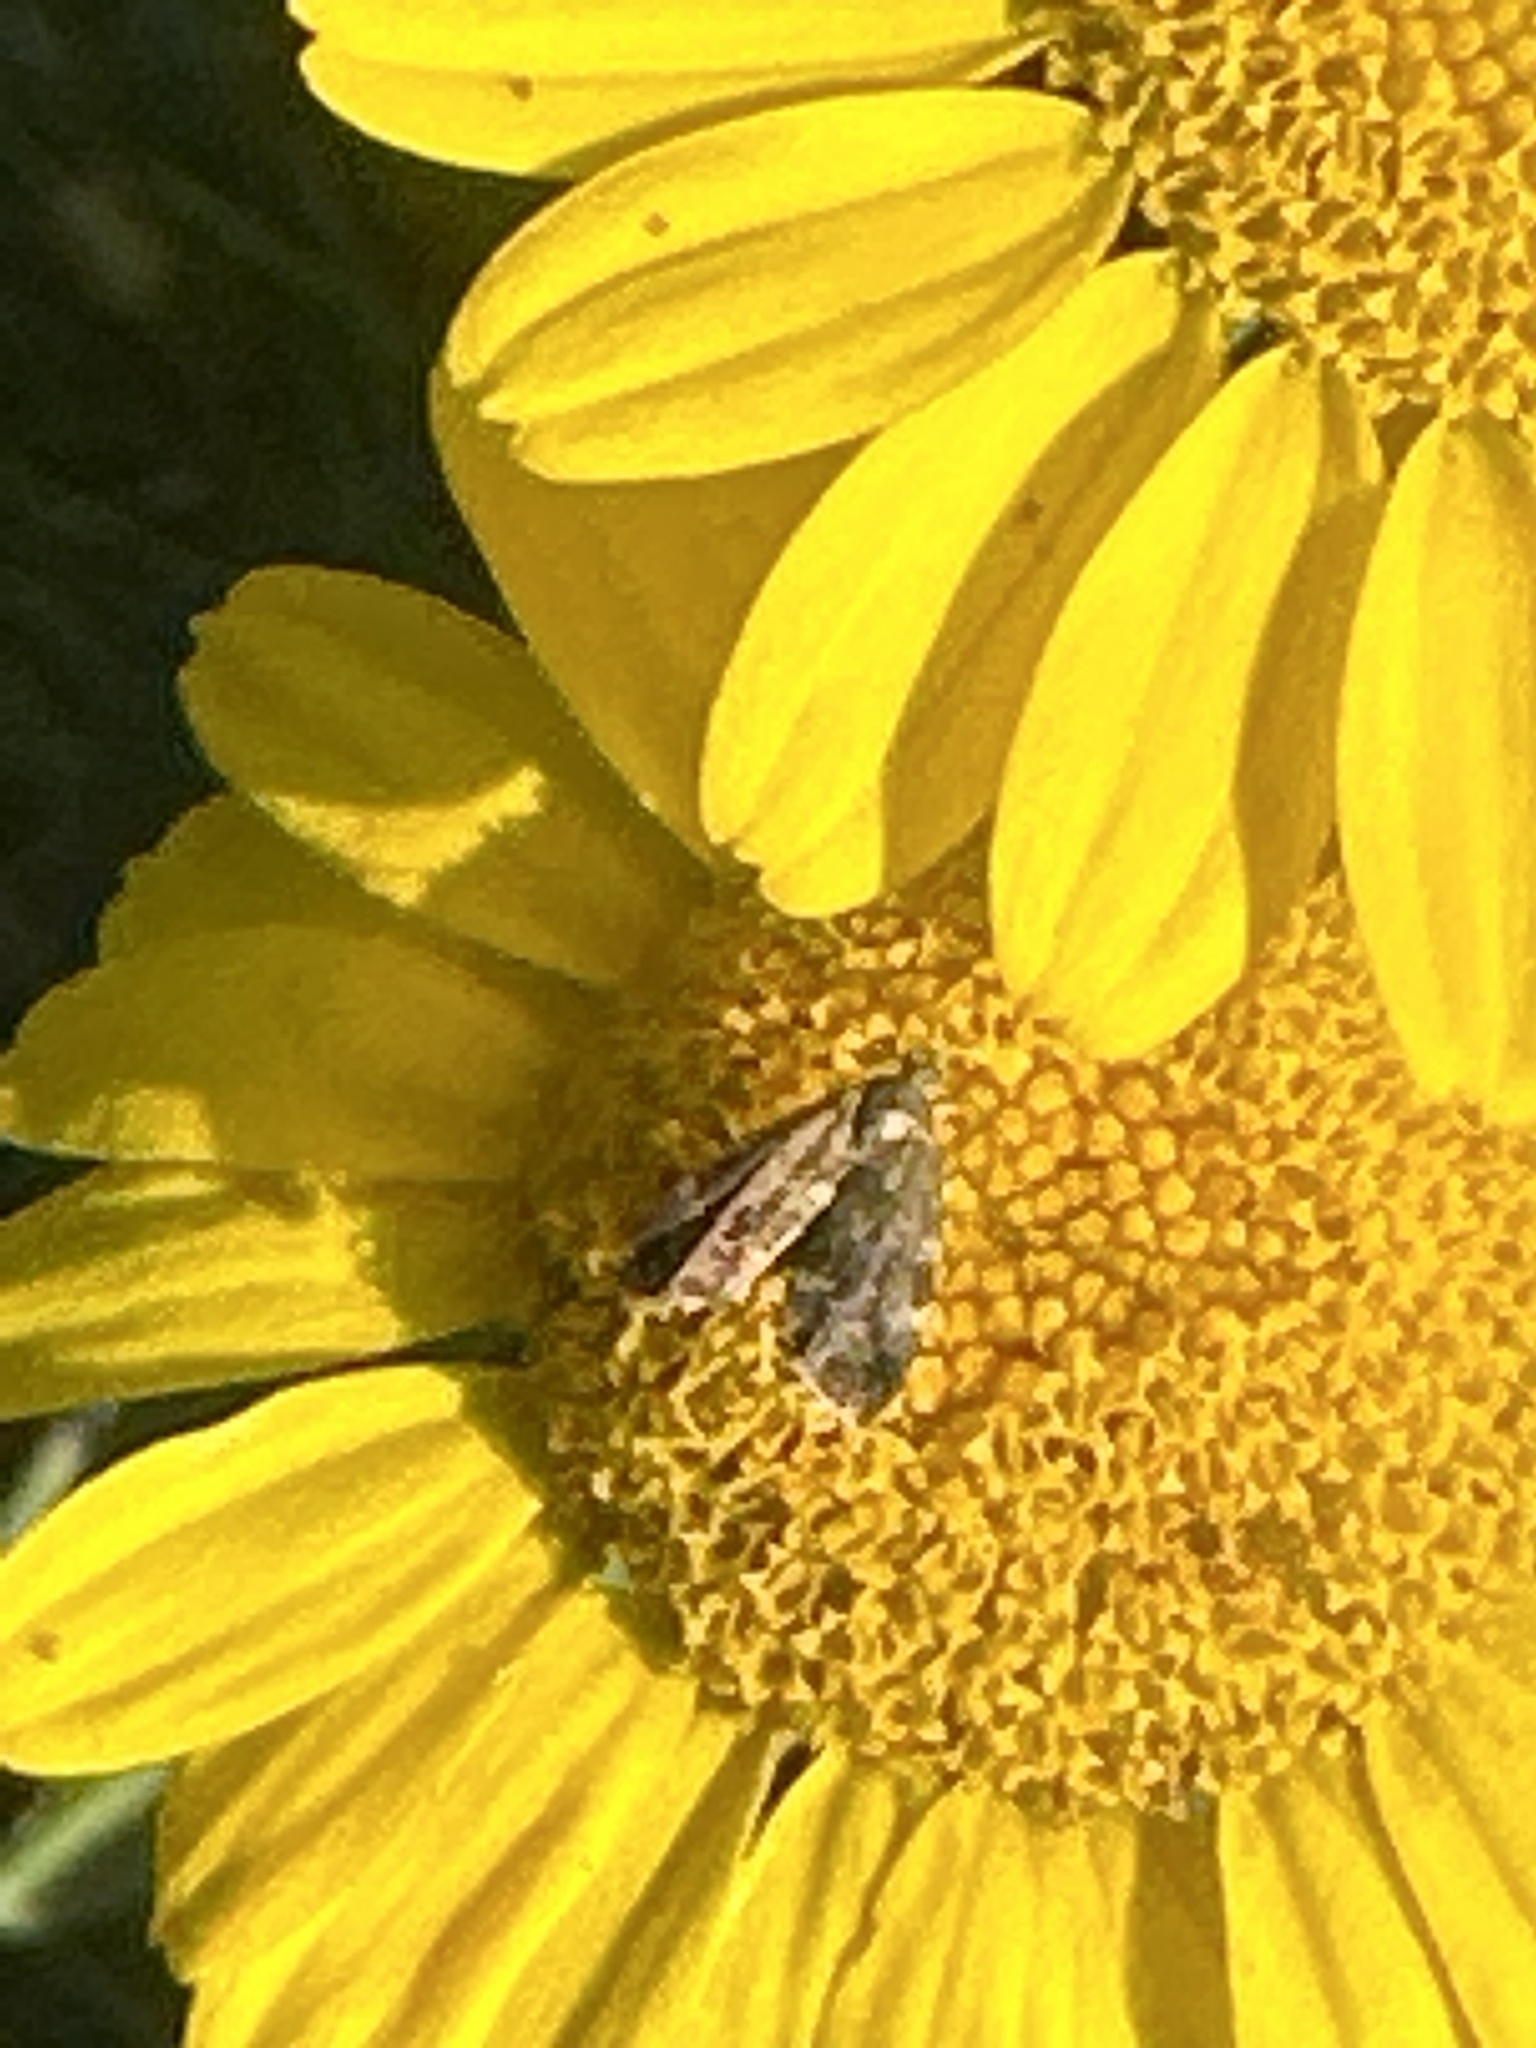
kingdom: Animalia
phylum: Arthropoda
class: Insecta
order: Lepidoptera
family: Choreutidae
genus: Anthophila
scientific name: Anthophila fabriciana
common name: Nettle-tap
